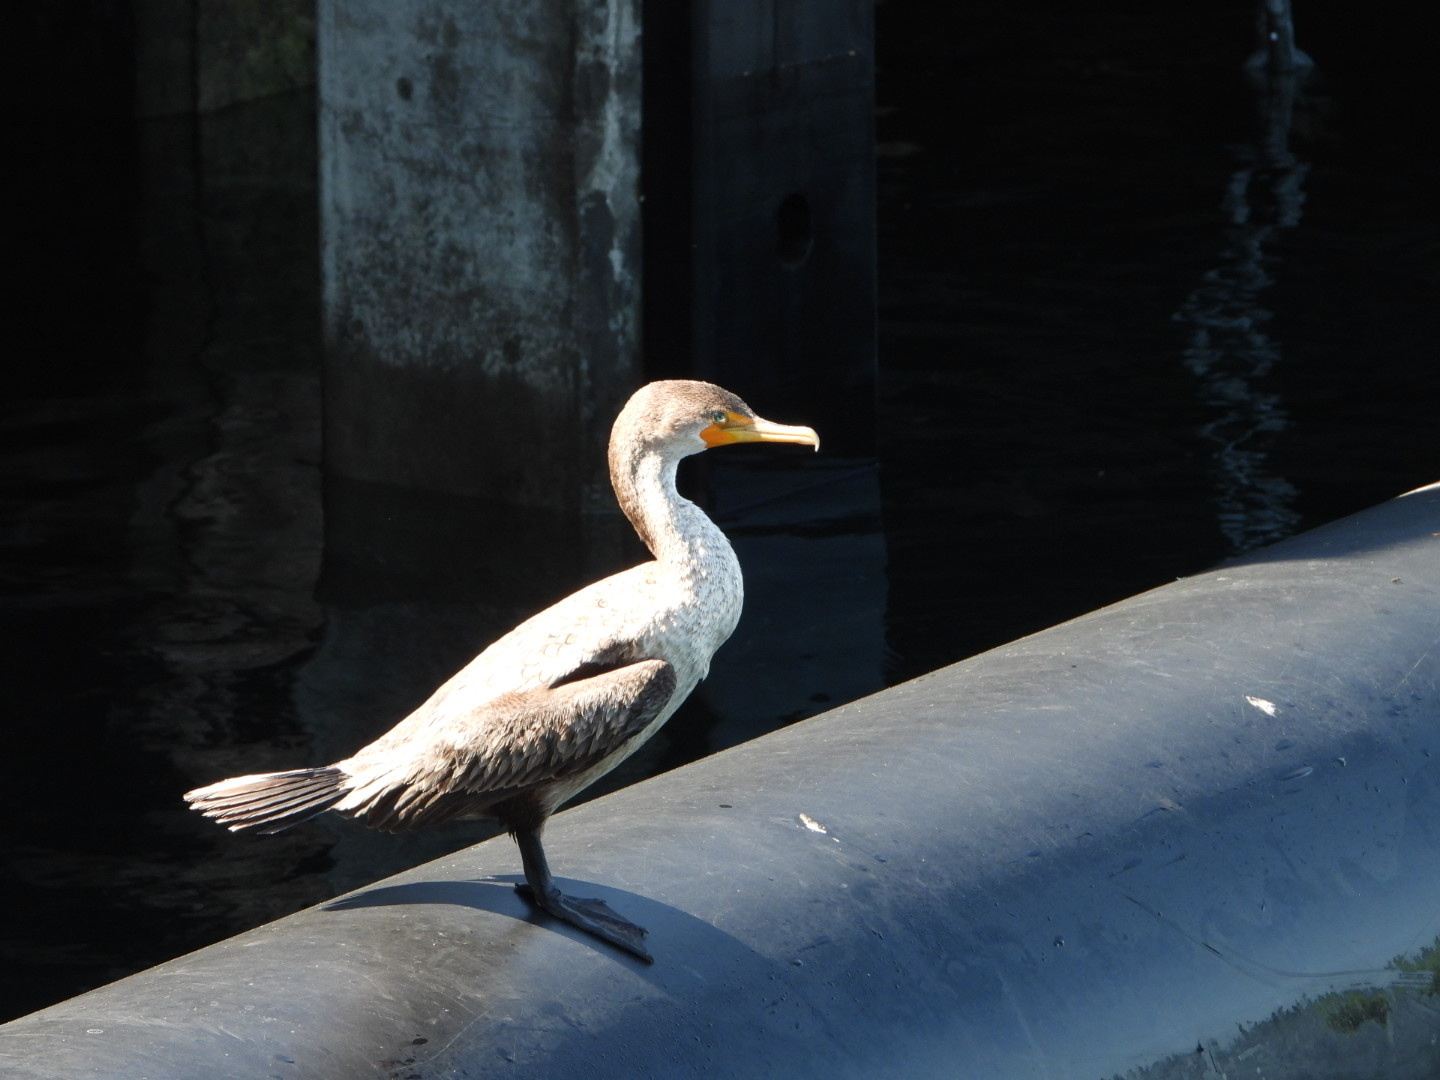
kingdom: Animalia
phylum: Chordata
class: Aves
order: Suliformes
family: Phalacrocoracidae
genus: Phalacrocorax
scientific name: Phalacrocorax auritus
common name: Double-crested cormorant
